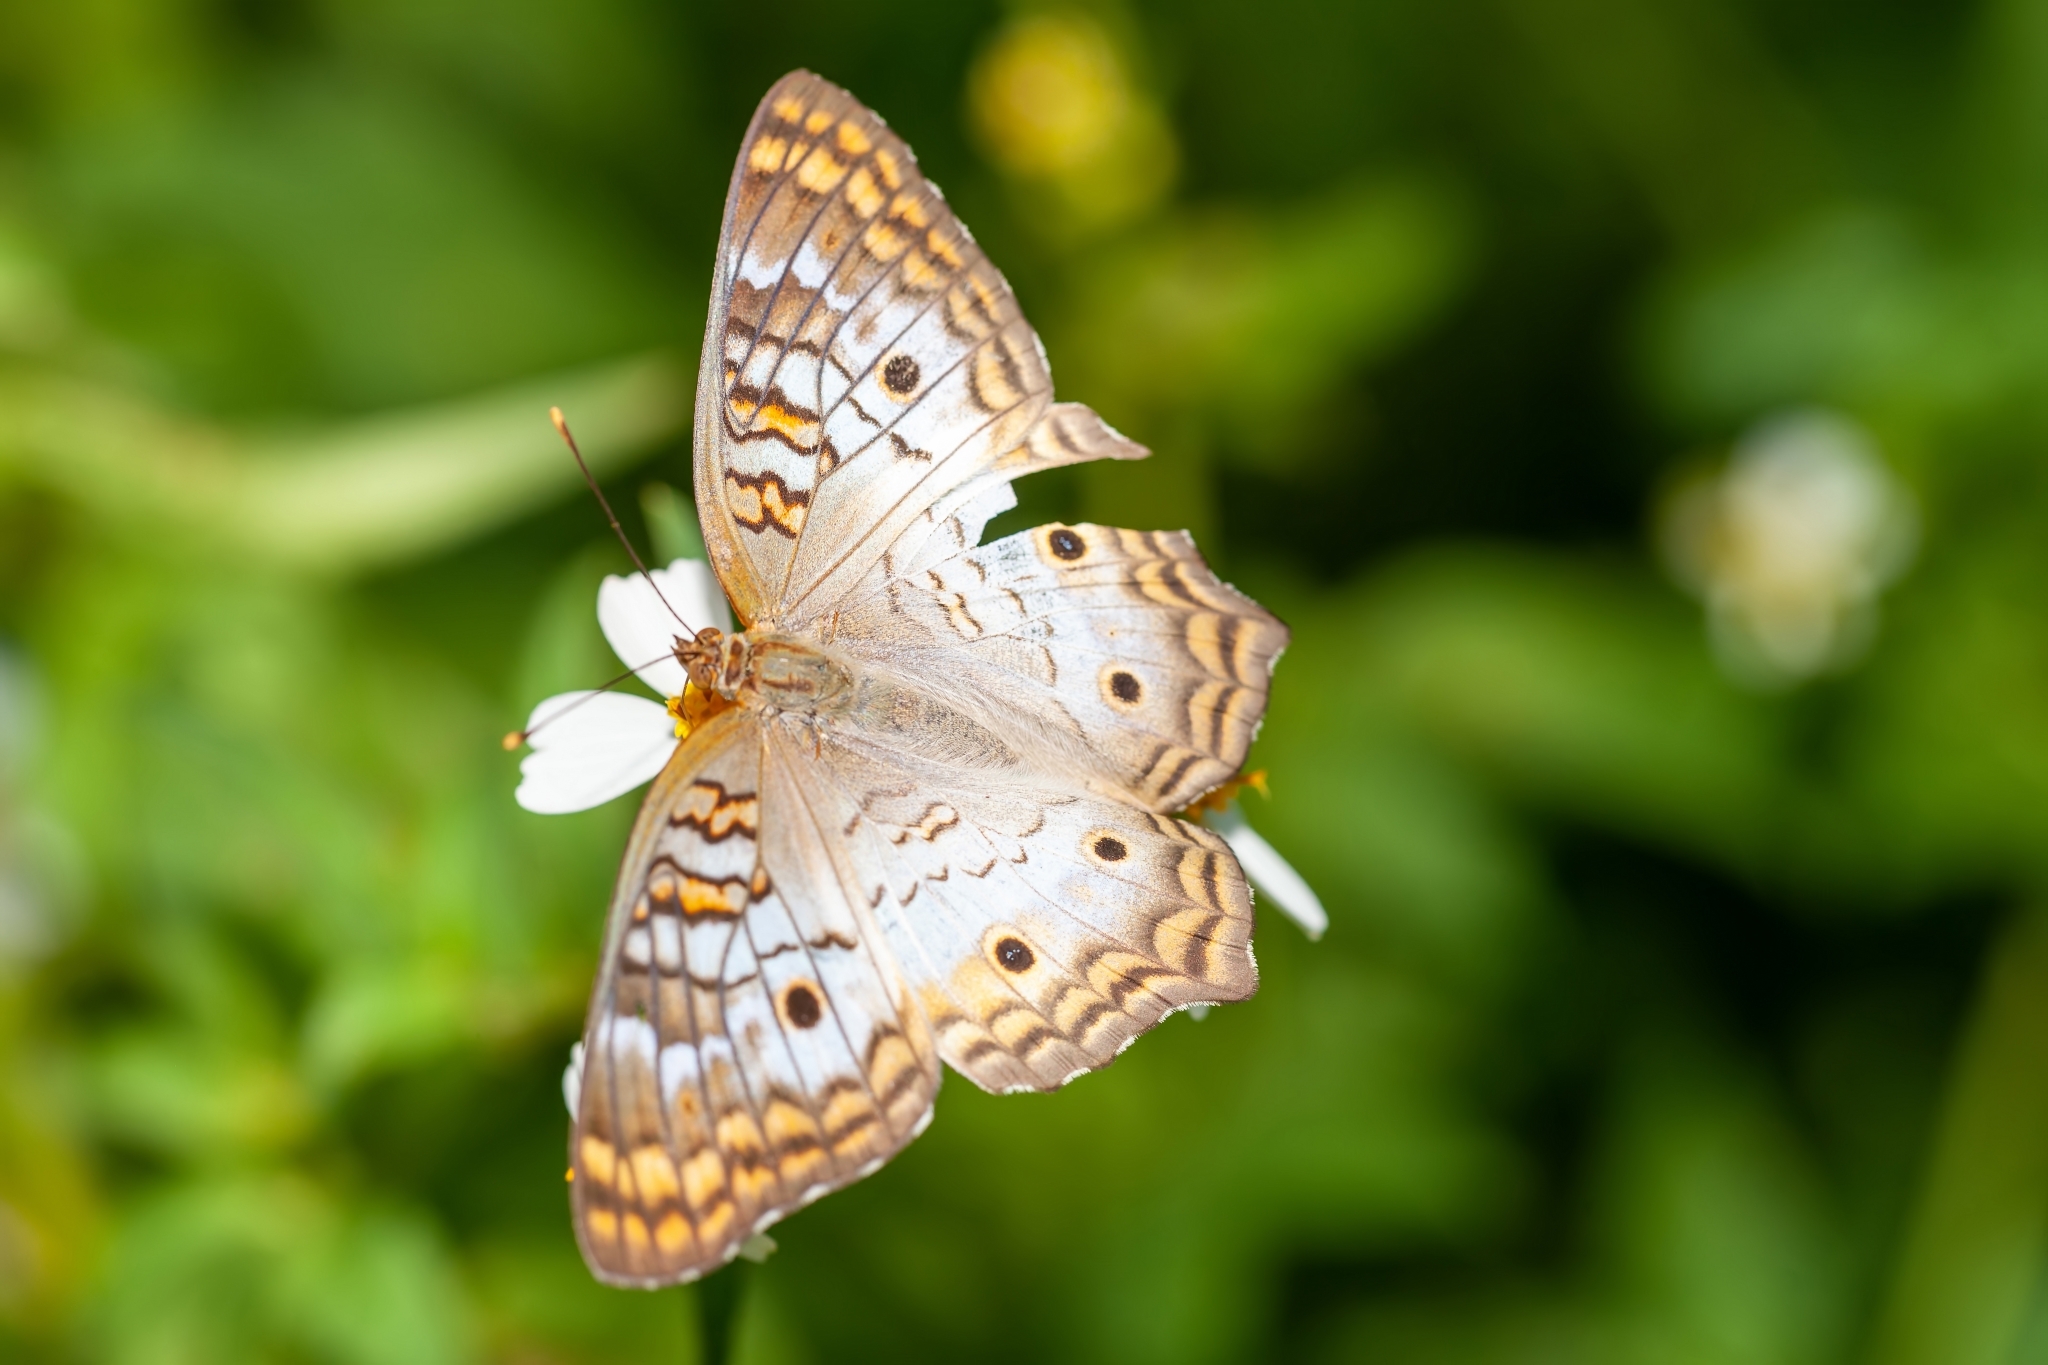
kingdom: Animalia
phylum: Arthropoda
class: Insecta
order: Lepidoptera
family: Nymphalidae
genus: Anartia
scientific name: Anartia jatrophae
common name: White peacock
